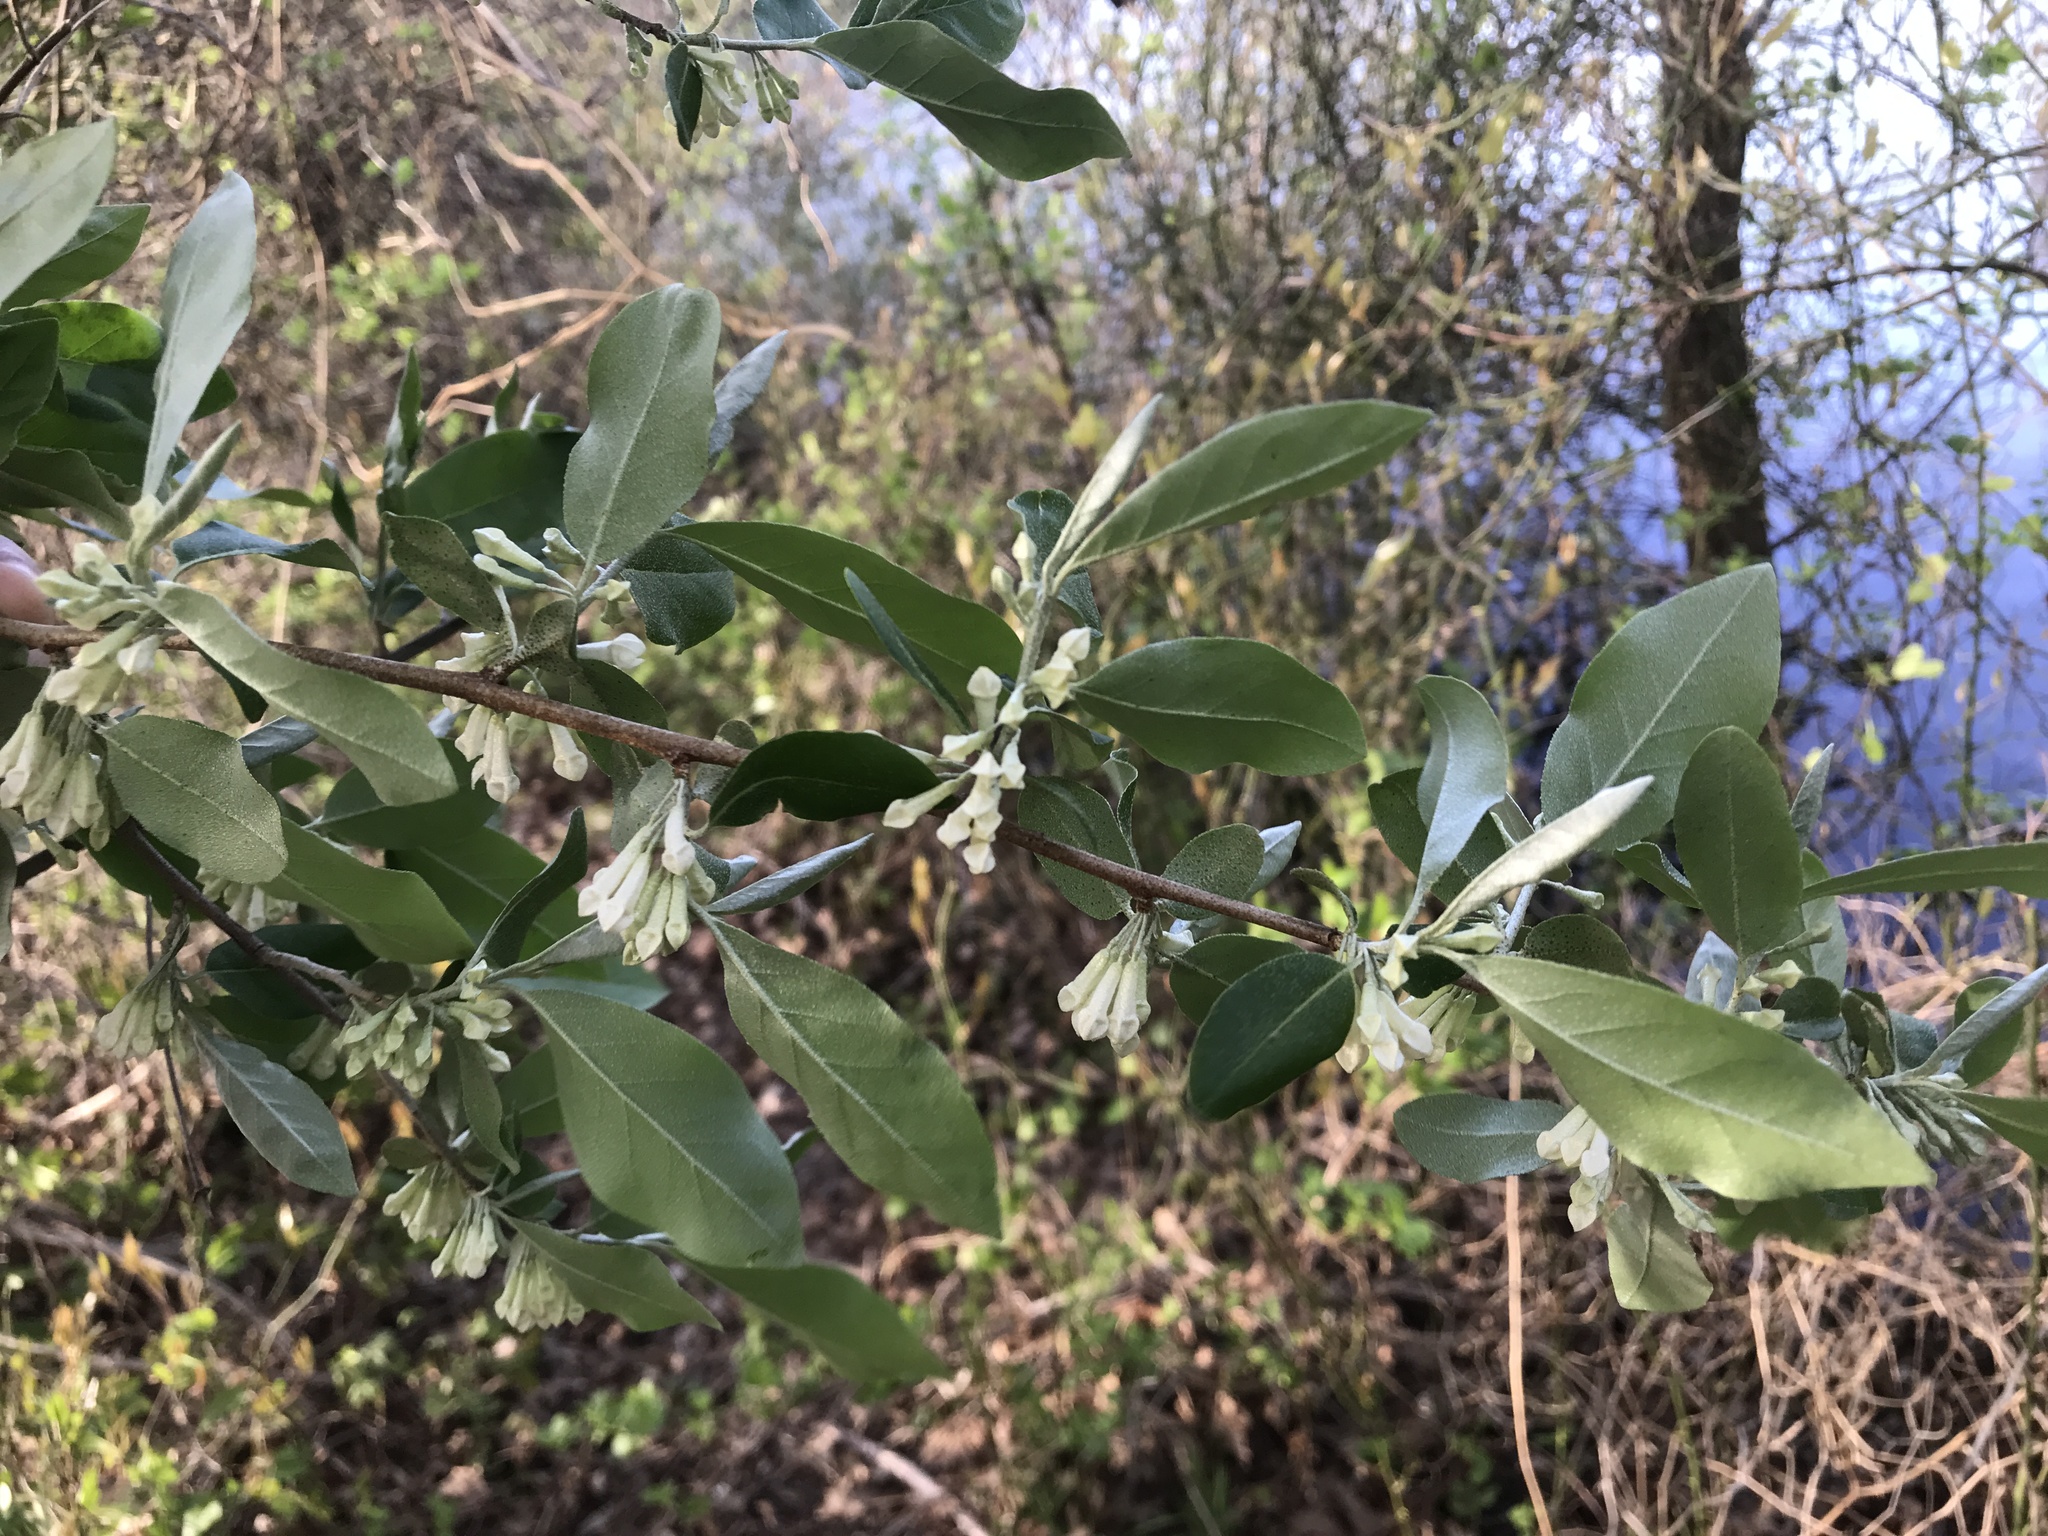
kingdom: Plantae
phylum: Tracheophyta
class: Magnoliopsida
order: Rosales
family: Elaeagnaceae
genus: Elaeagnus
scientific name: Elaeagnus umbellata
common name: Autumn olive
